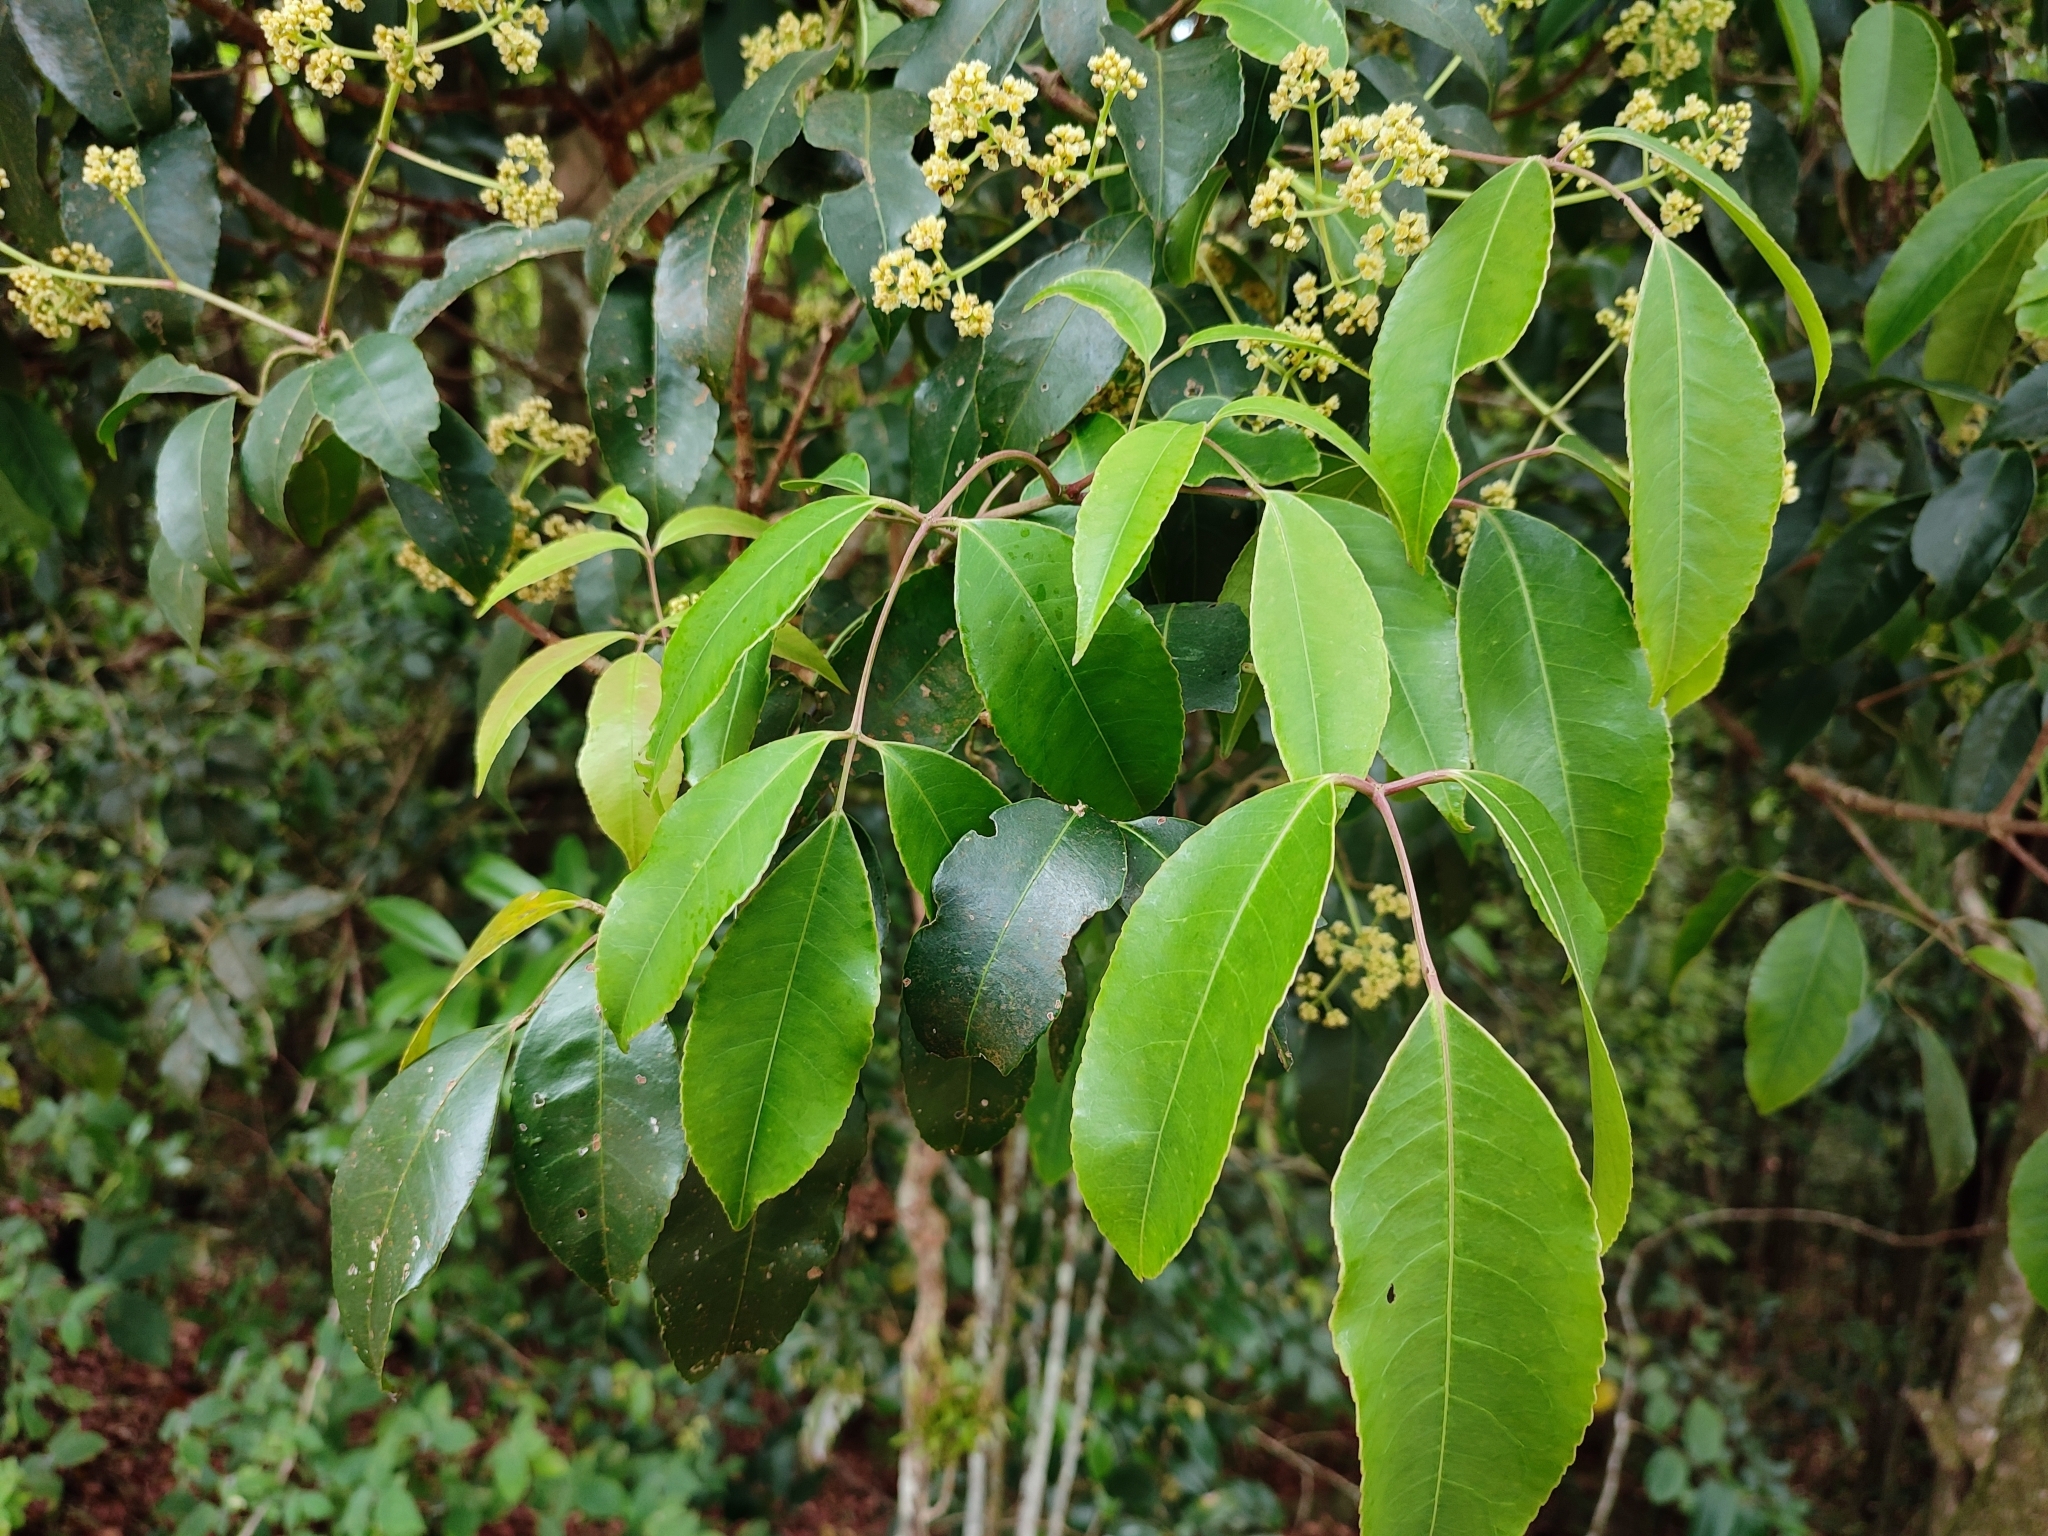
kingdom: Plantae
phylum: Tracheophyta
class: Magnoliopsida
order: Crossosomatales
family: Staphyleaceae
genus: Turpinia
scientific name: Turpinia cochinchinensis
